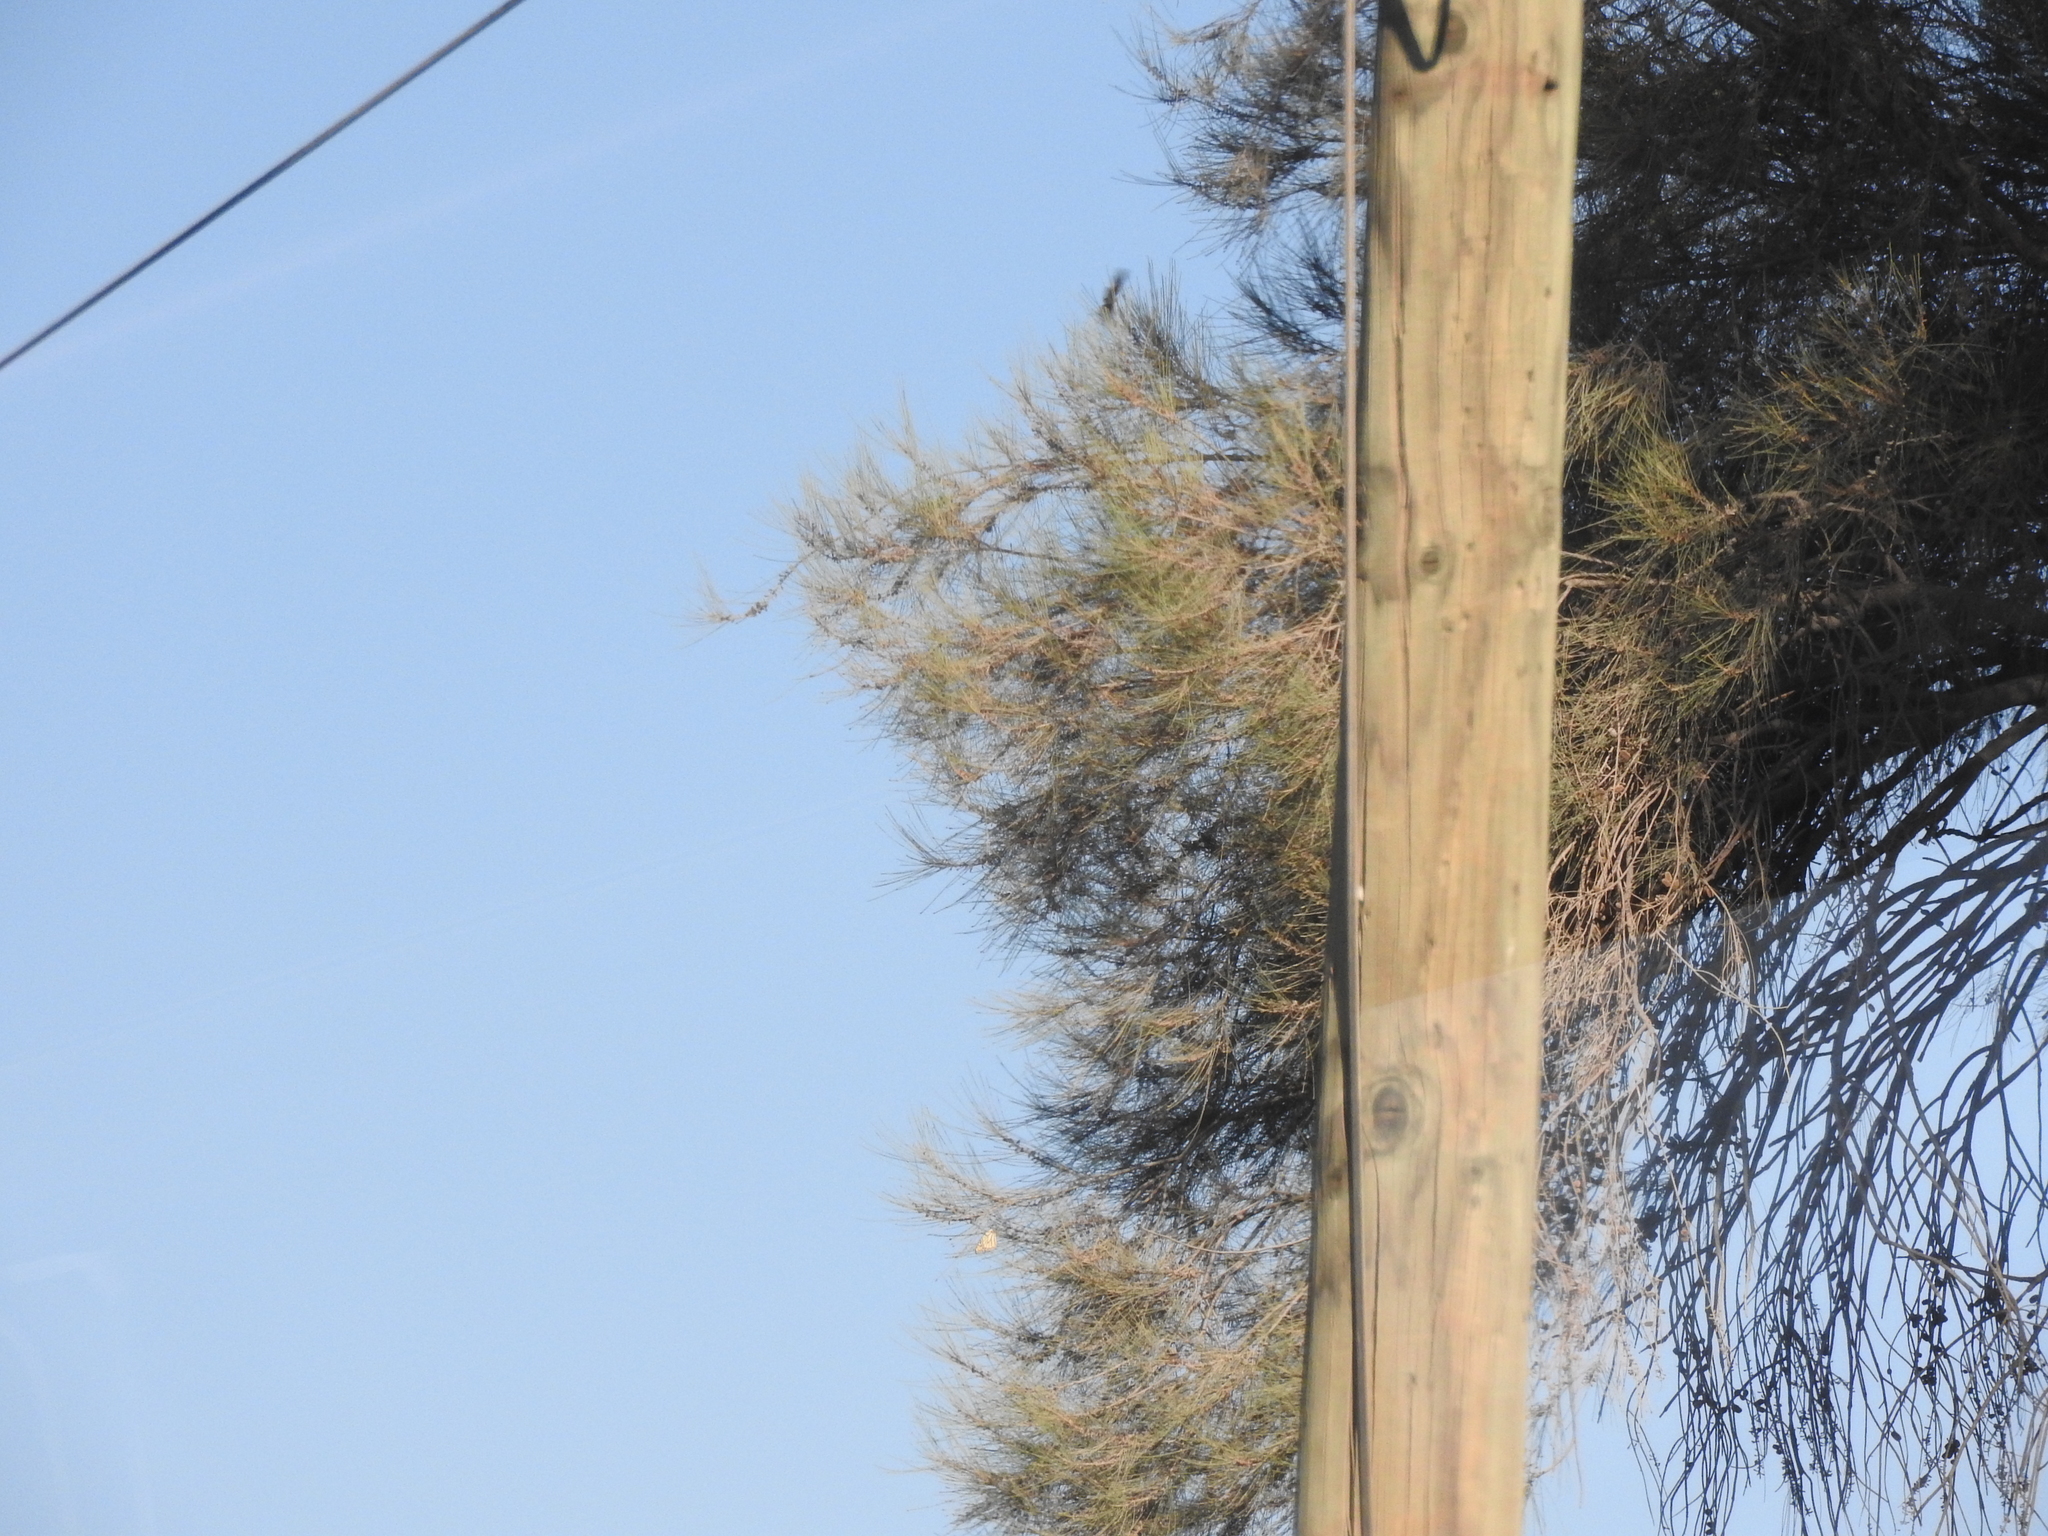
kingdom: Plantae
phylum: Tracheophyta
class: Magnoliopsida
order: Fagales
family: Casuarinaceae
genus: Casuarina
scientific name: Casuarina equisetifolia
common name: Beach sheoak
